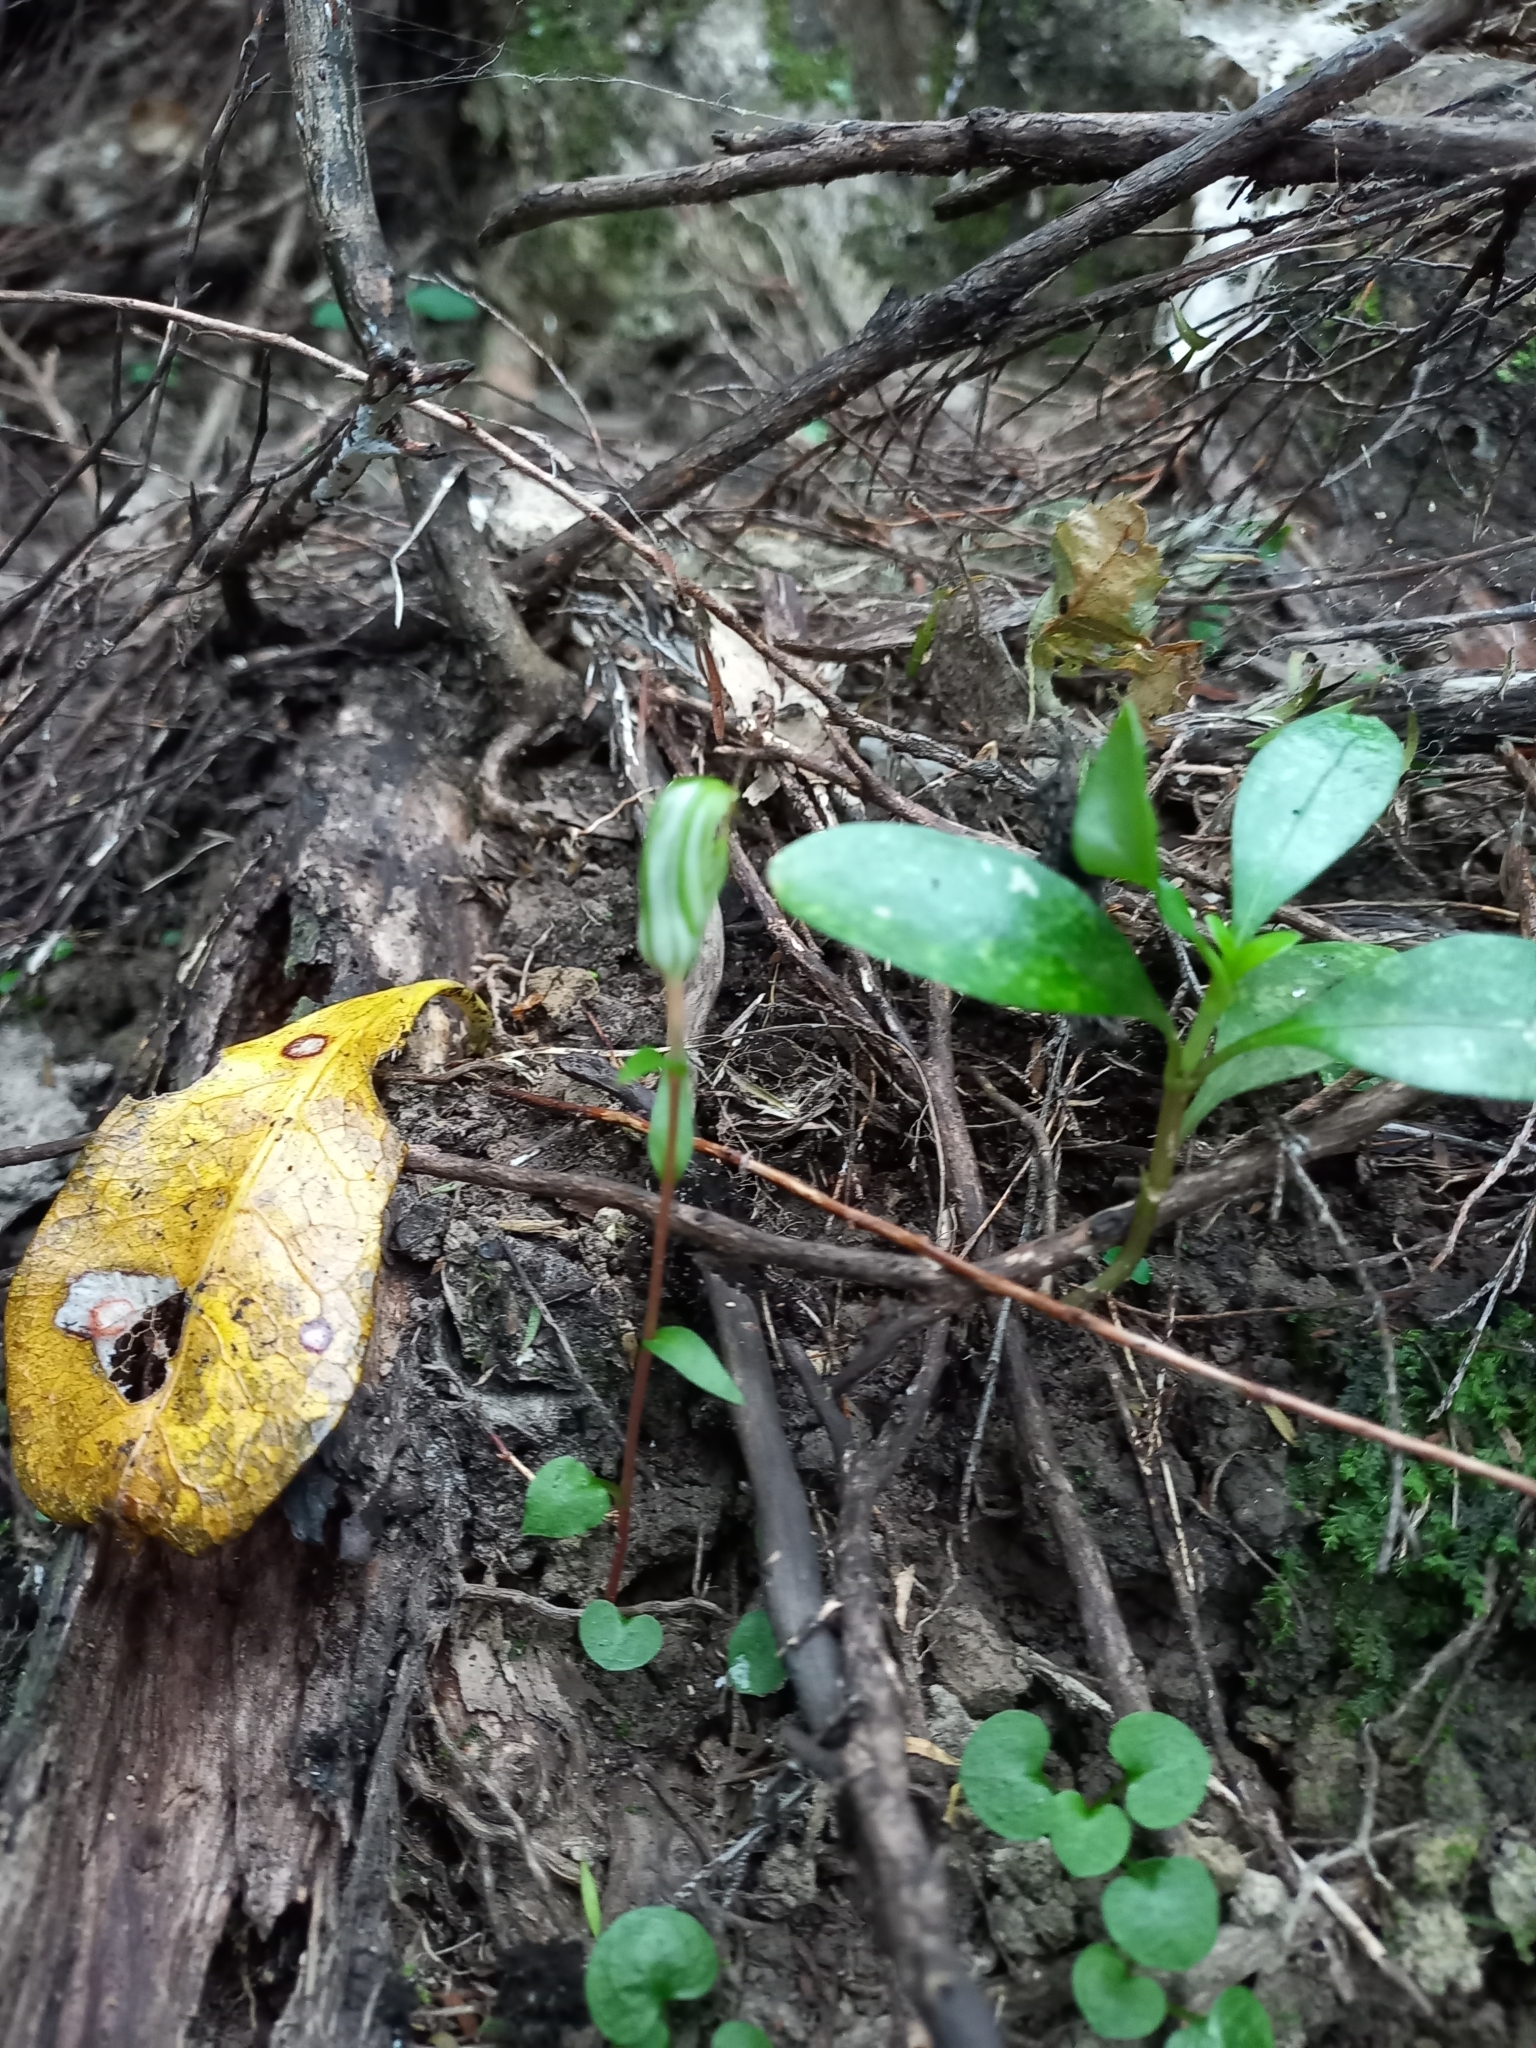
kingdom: Plantae
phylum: Tracheophyta
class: Liliopsida
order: Asparagales
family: Orchidaceae
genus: Pterostylis
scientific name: Pterostylis alobula
